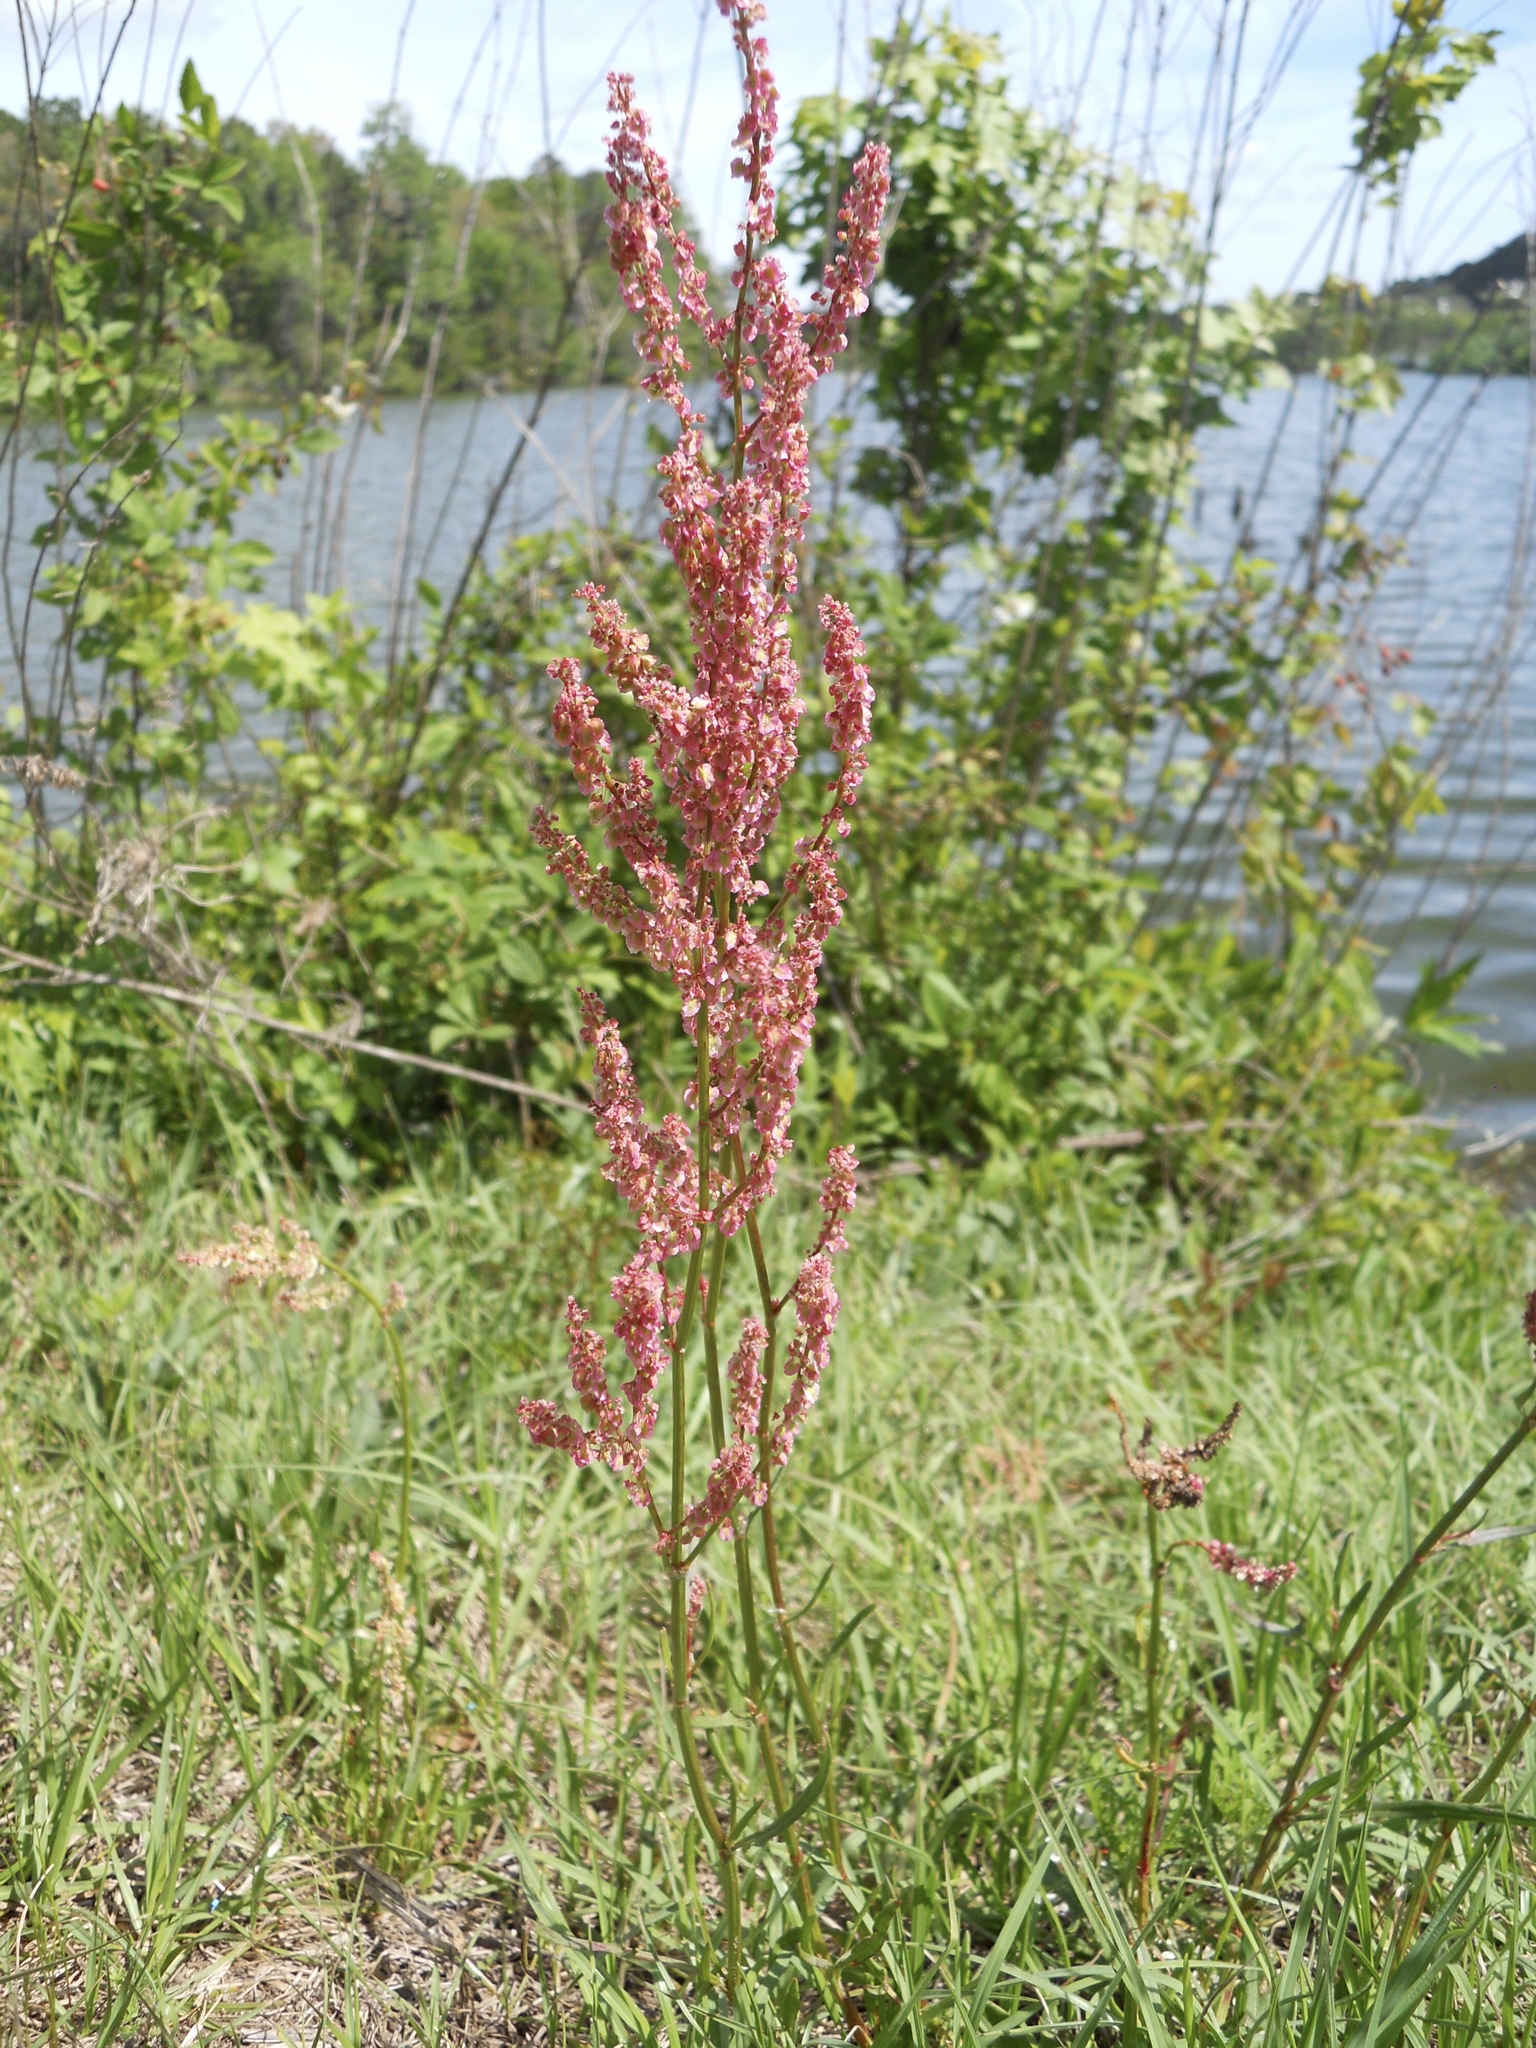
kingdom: Plantae
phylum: Tracheophyta
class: Magnoliopsida
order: Caryophyllales
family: Polygonaceae
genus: Rumex
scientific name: Rumex acetosella
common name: Common sheep sorrel
